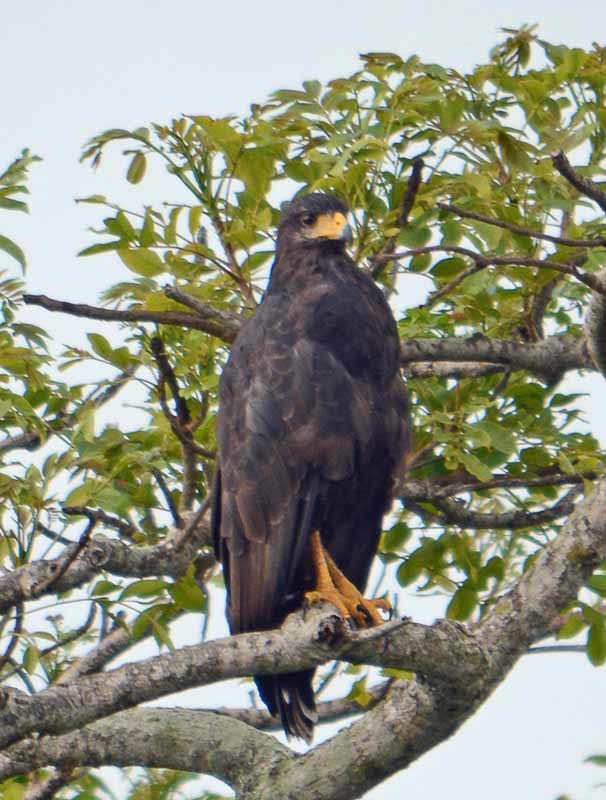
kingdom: Animalia
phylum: Chordata
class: Aves
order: Accipitriformes
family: Accipitridae
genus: Buteogallus
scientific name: Buteogallus urubitinga
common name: Great black hawk
